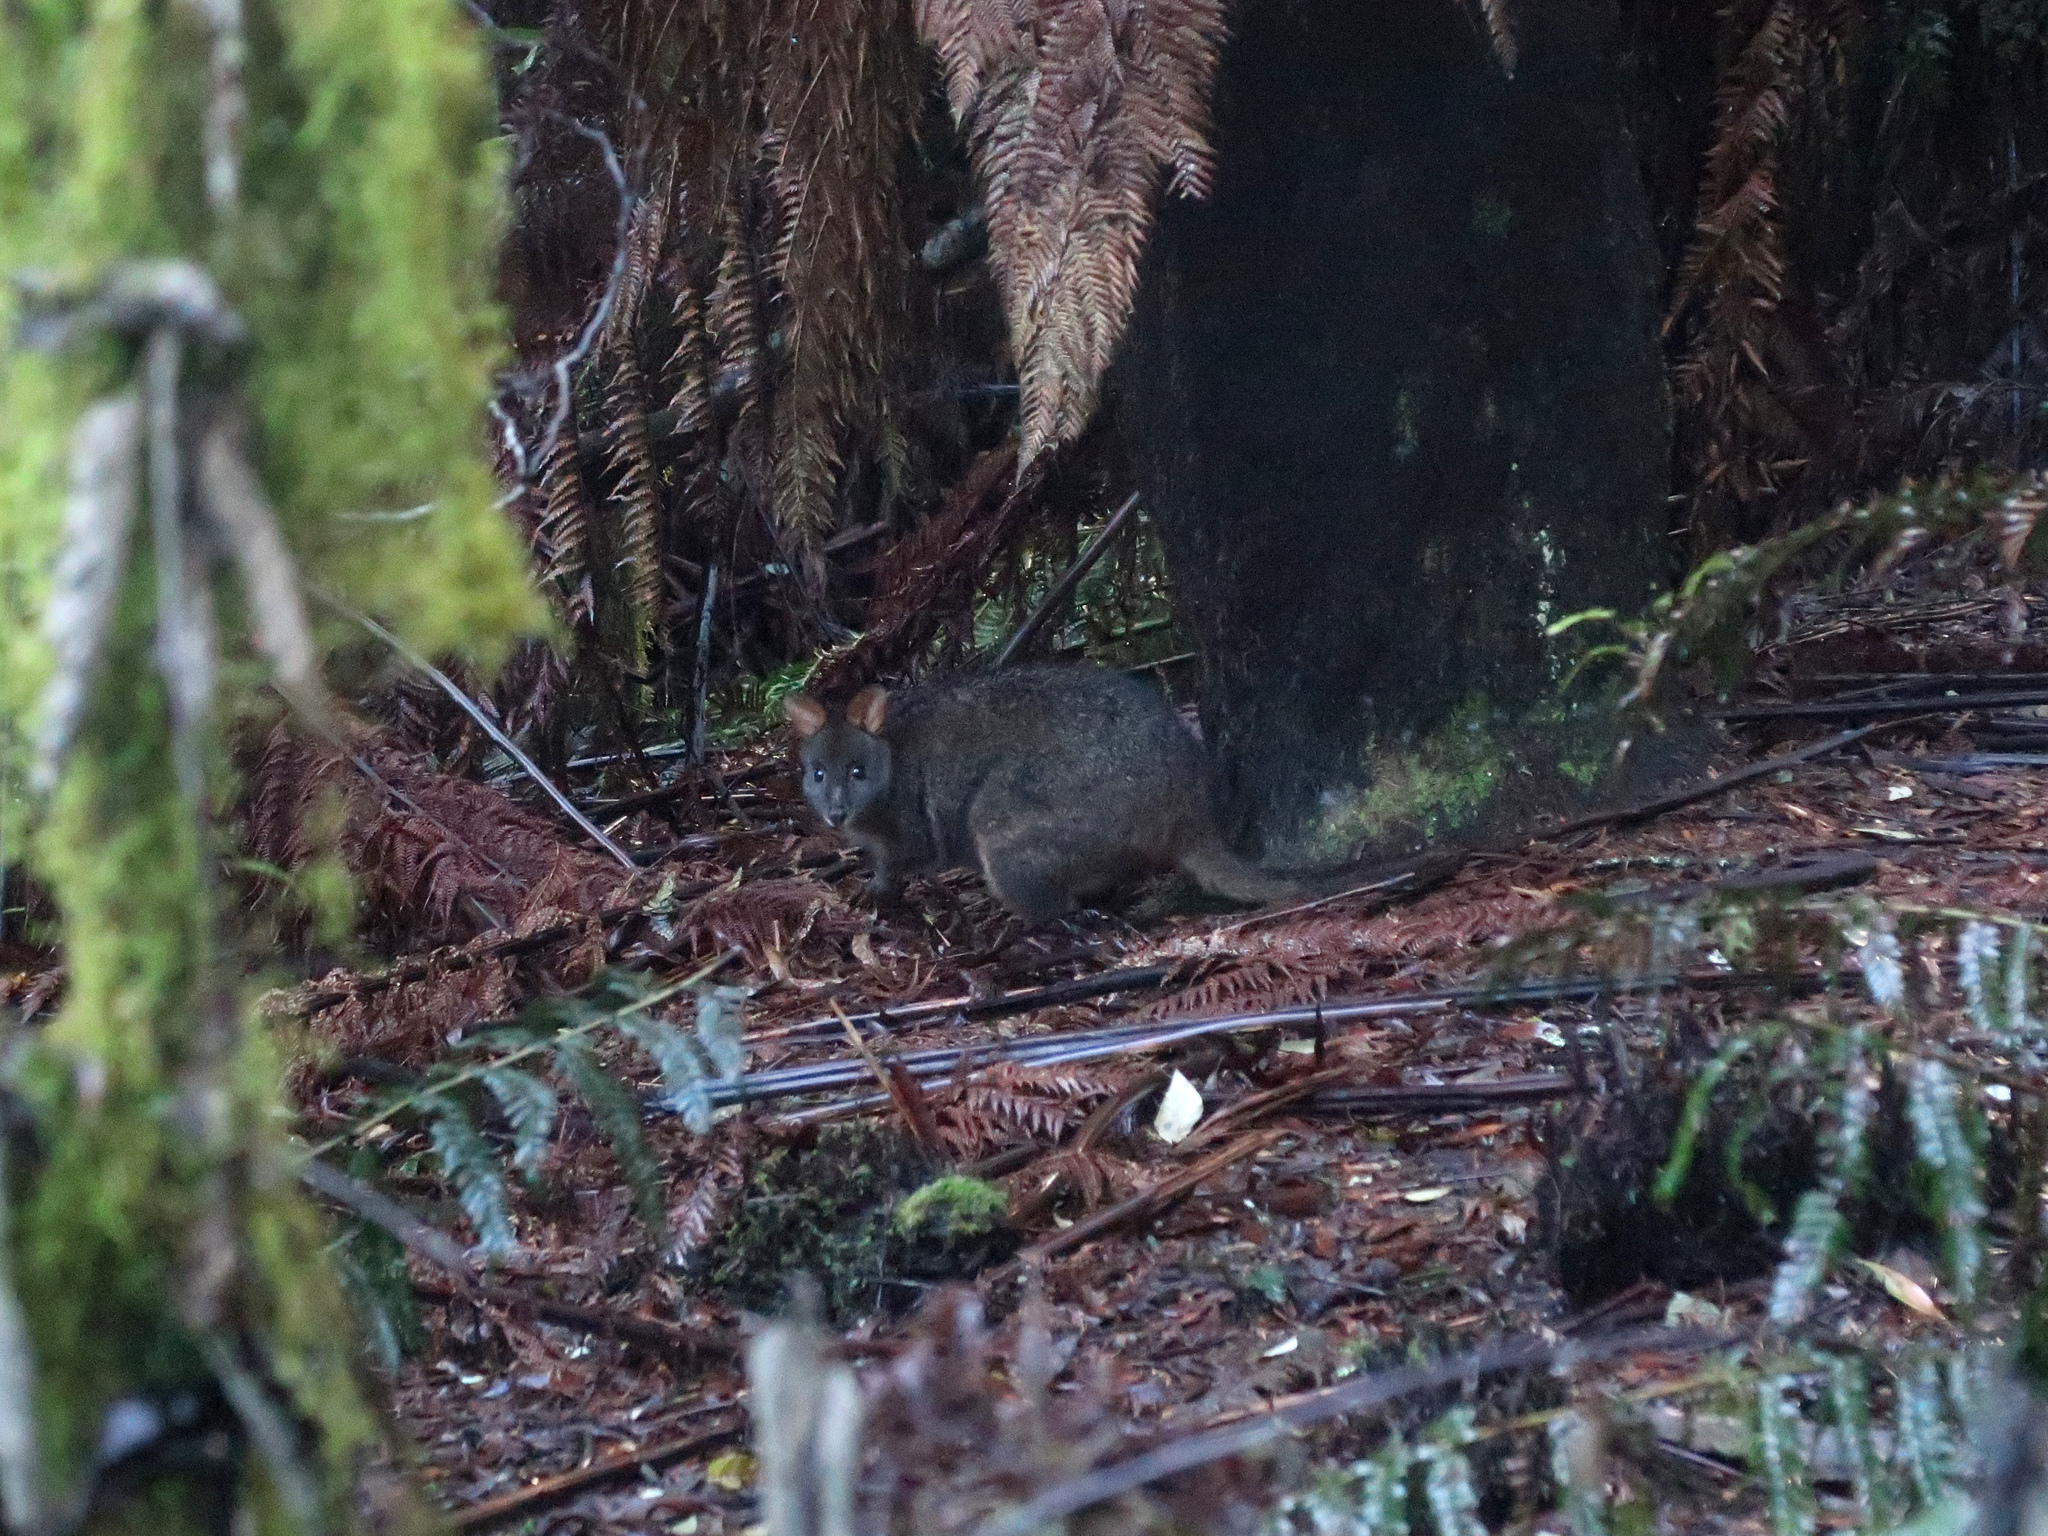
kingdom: Animalia
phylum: Chordata
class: Mammalia
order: Diprotodontia
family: Macropodidae
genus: Thylogale
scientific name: Thylogale billardierii
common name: Tasmanian pademelon
